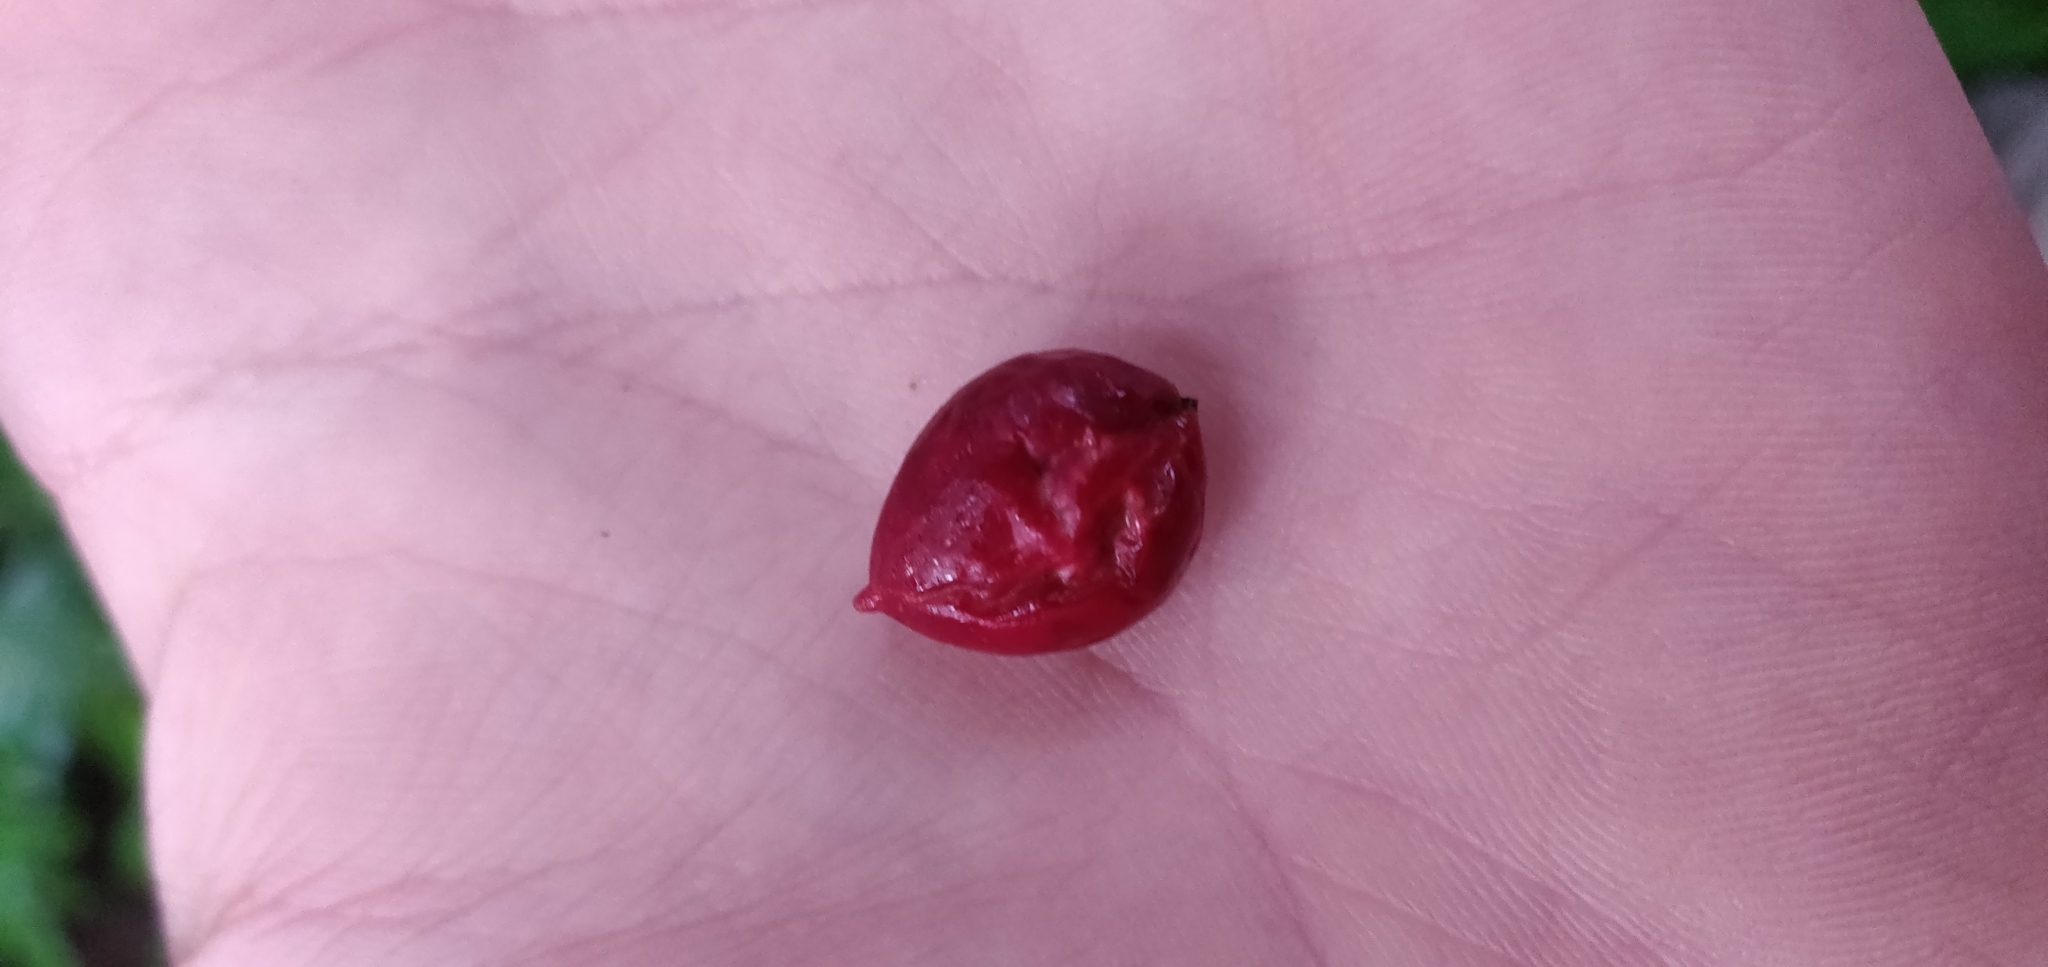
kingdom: Plantae
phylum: Tracheophyta
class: Magnoliopsida
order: Laurales
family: Monimiaceae
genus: Hedycarya
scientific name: Hedycarya arborea
